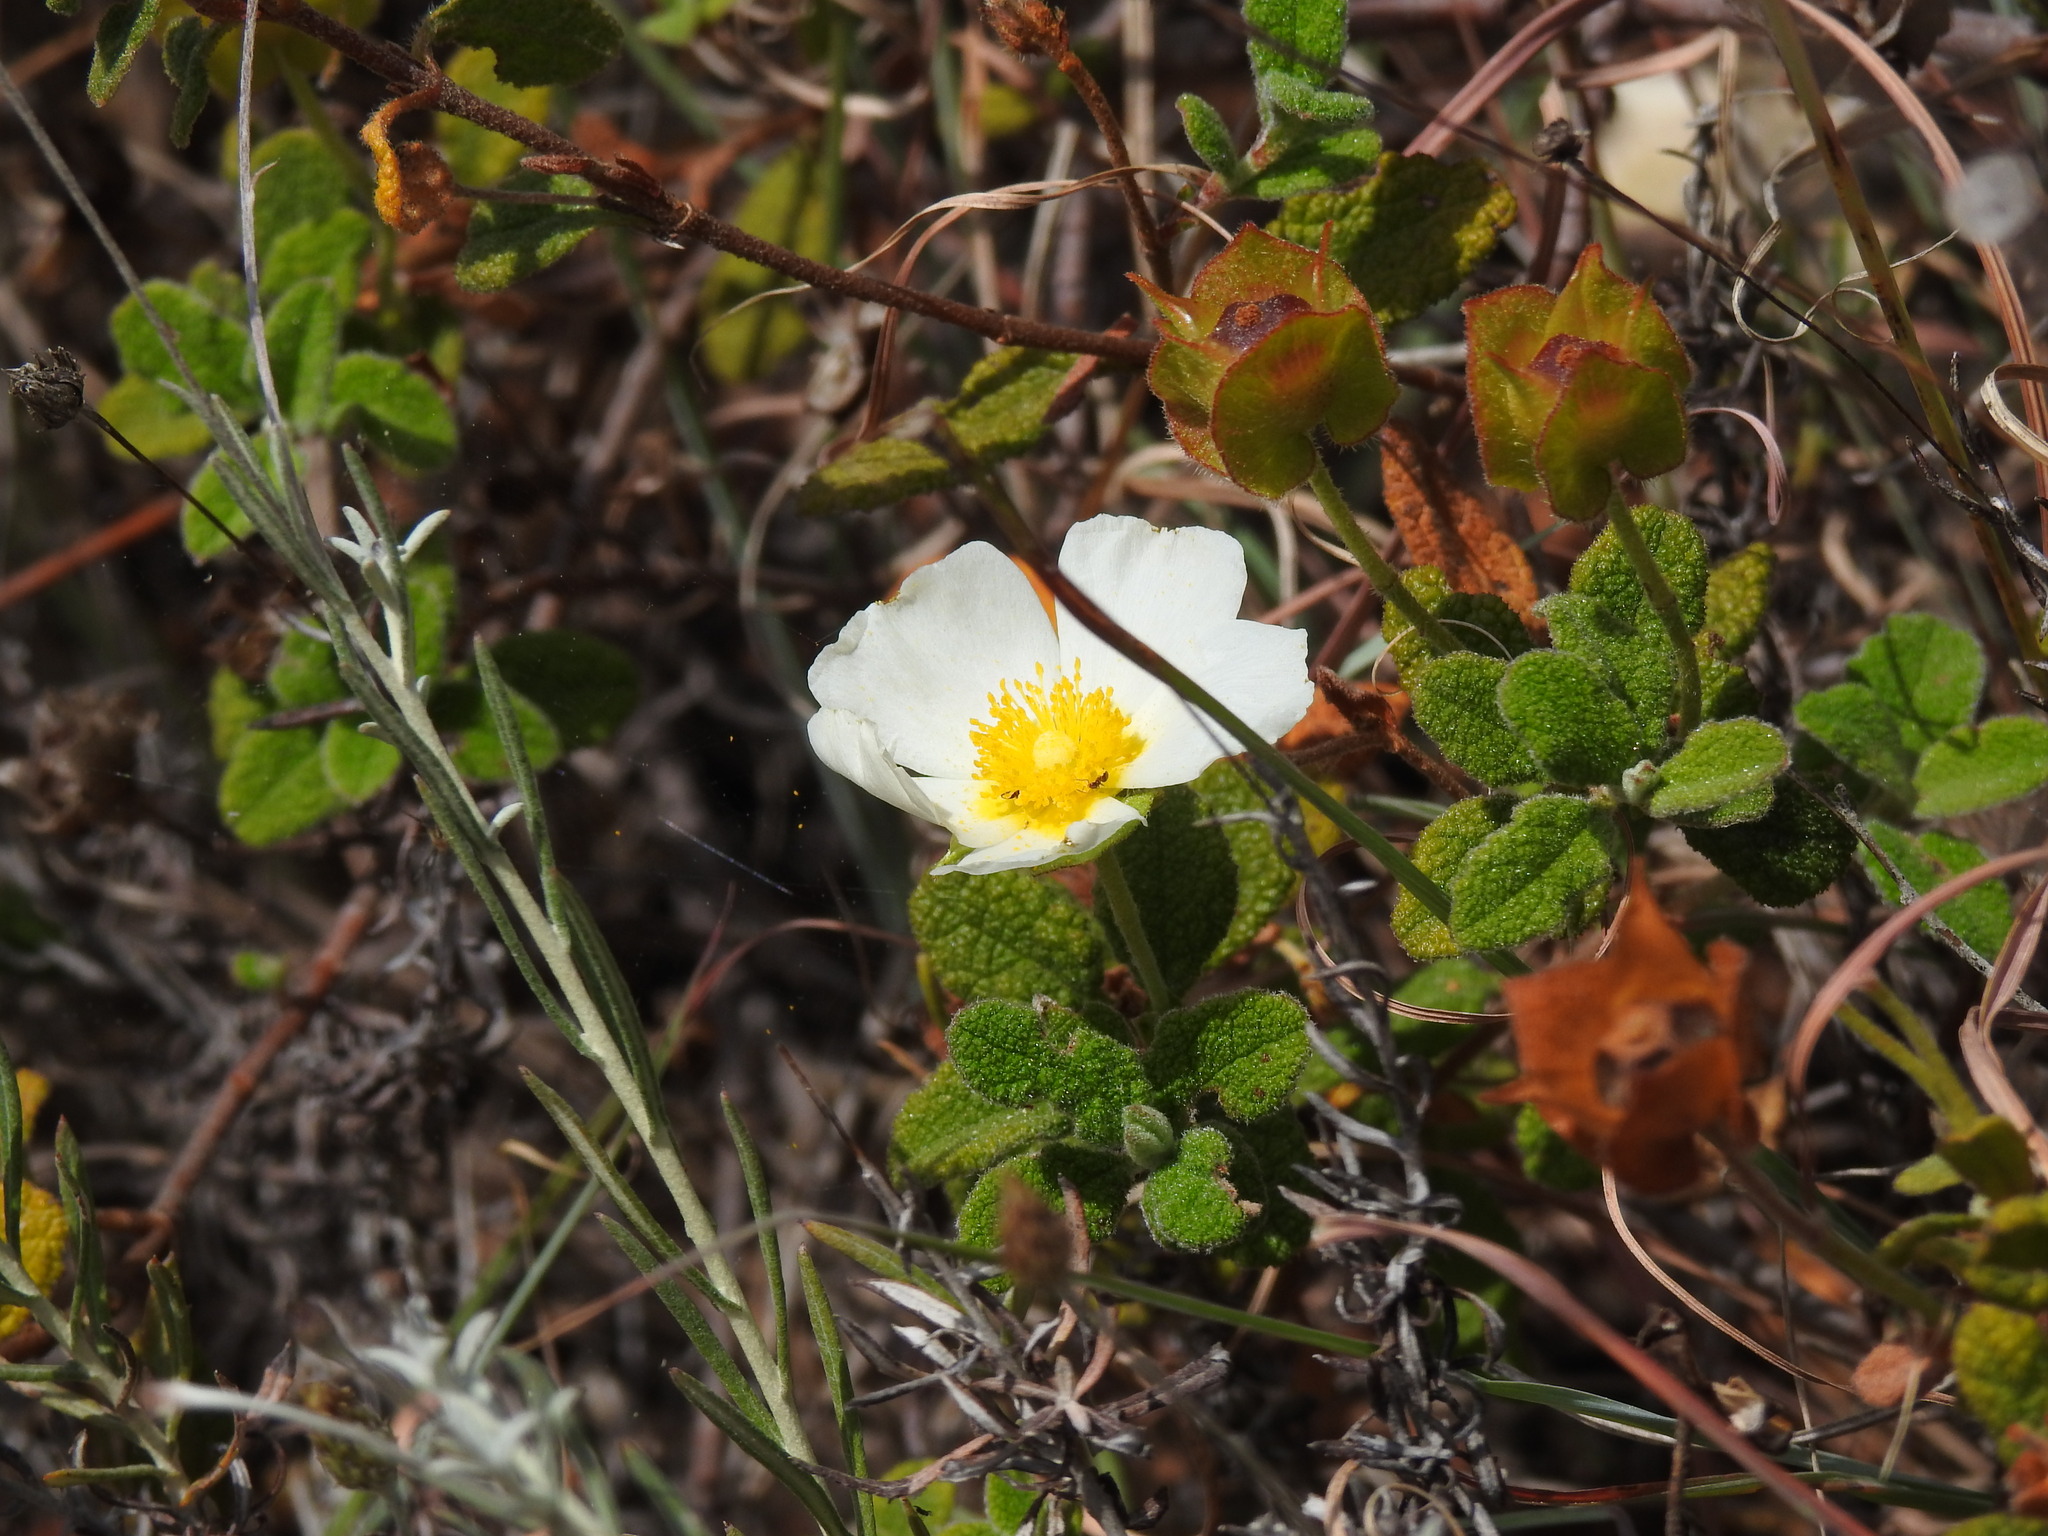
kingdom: Plantae
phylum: Tracheophyta
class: Magnoliopsida
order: Malvales
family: Cistaceae
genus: Cistus
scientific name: Cistus salviifolius
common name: Salvia cistus
